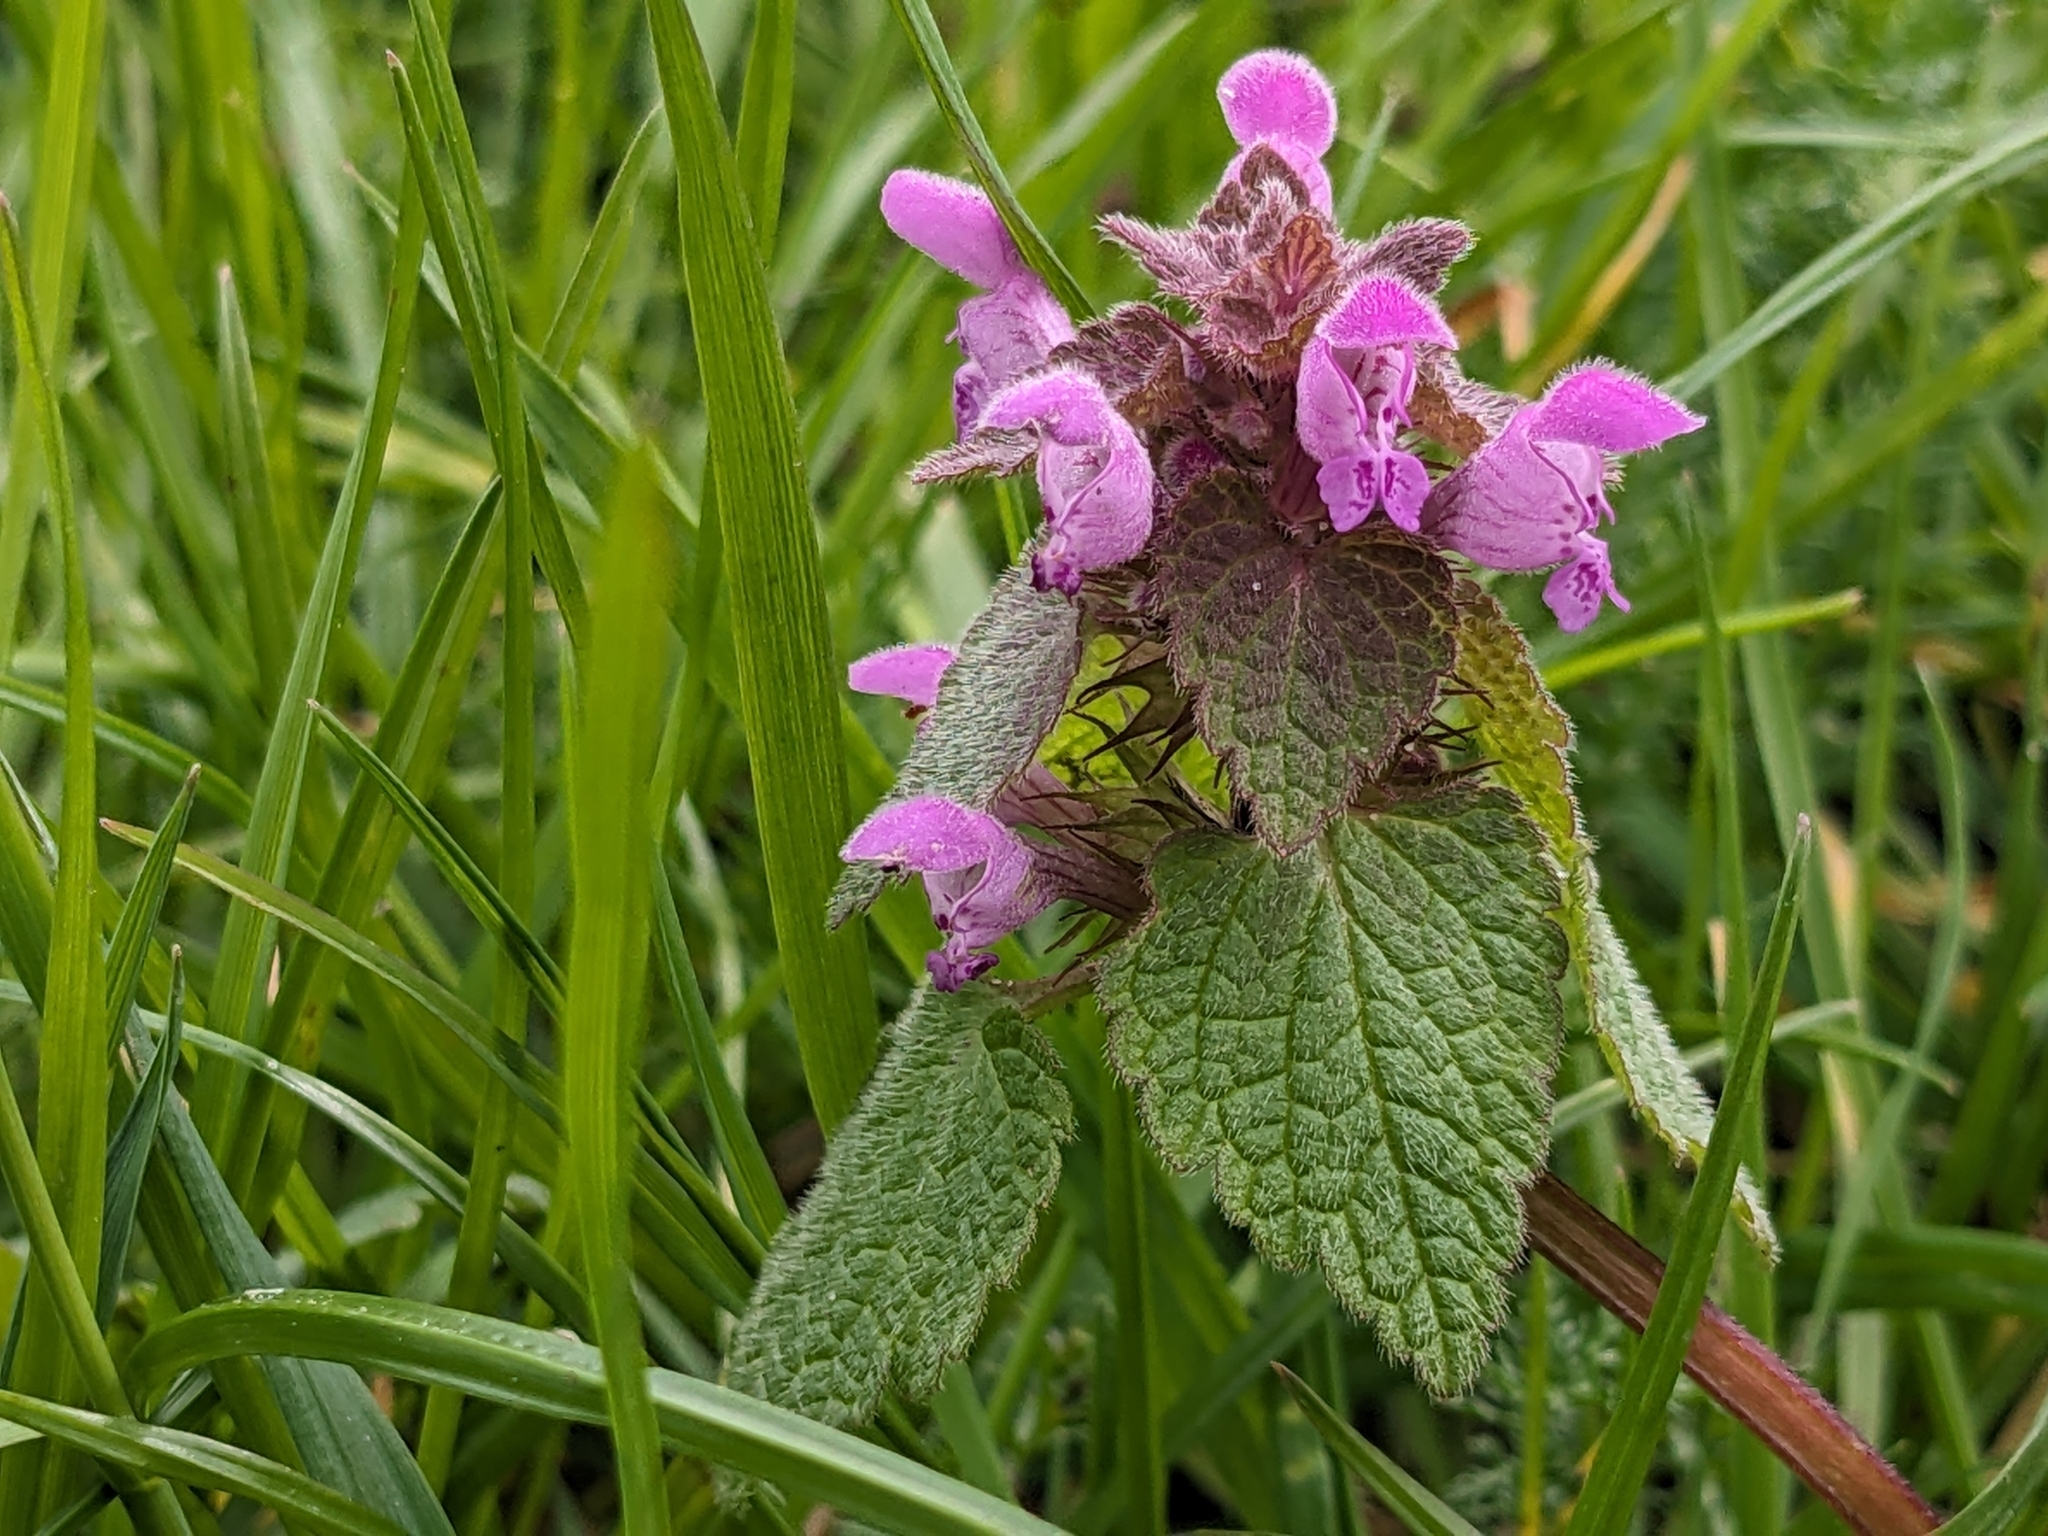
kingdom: Plantae
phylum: Tracheophyta
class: Magnoliopsida
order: Lamiales
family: Lamiaceae
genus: Lamium
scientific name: Lamium purpureum
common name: Red dead-nettle
